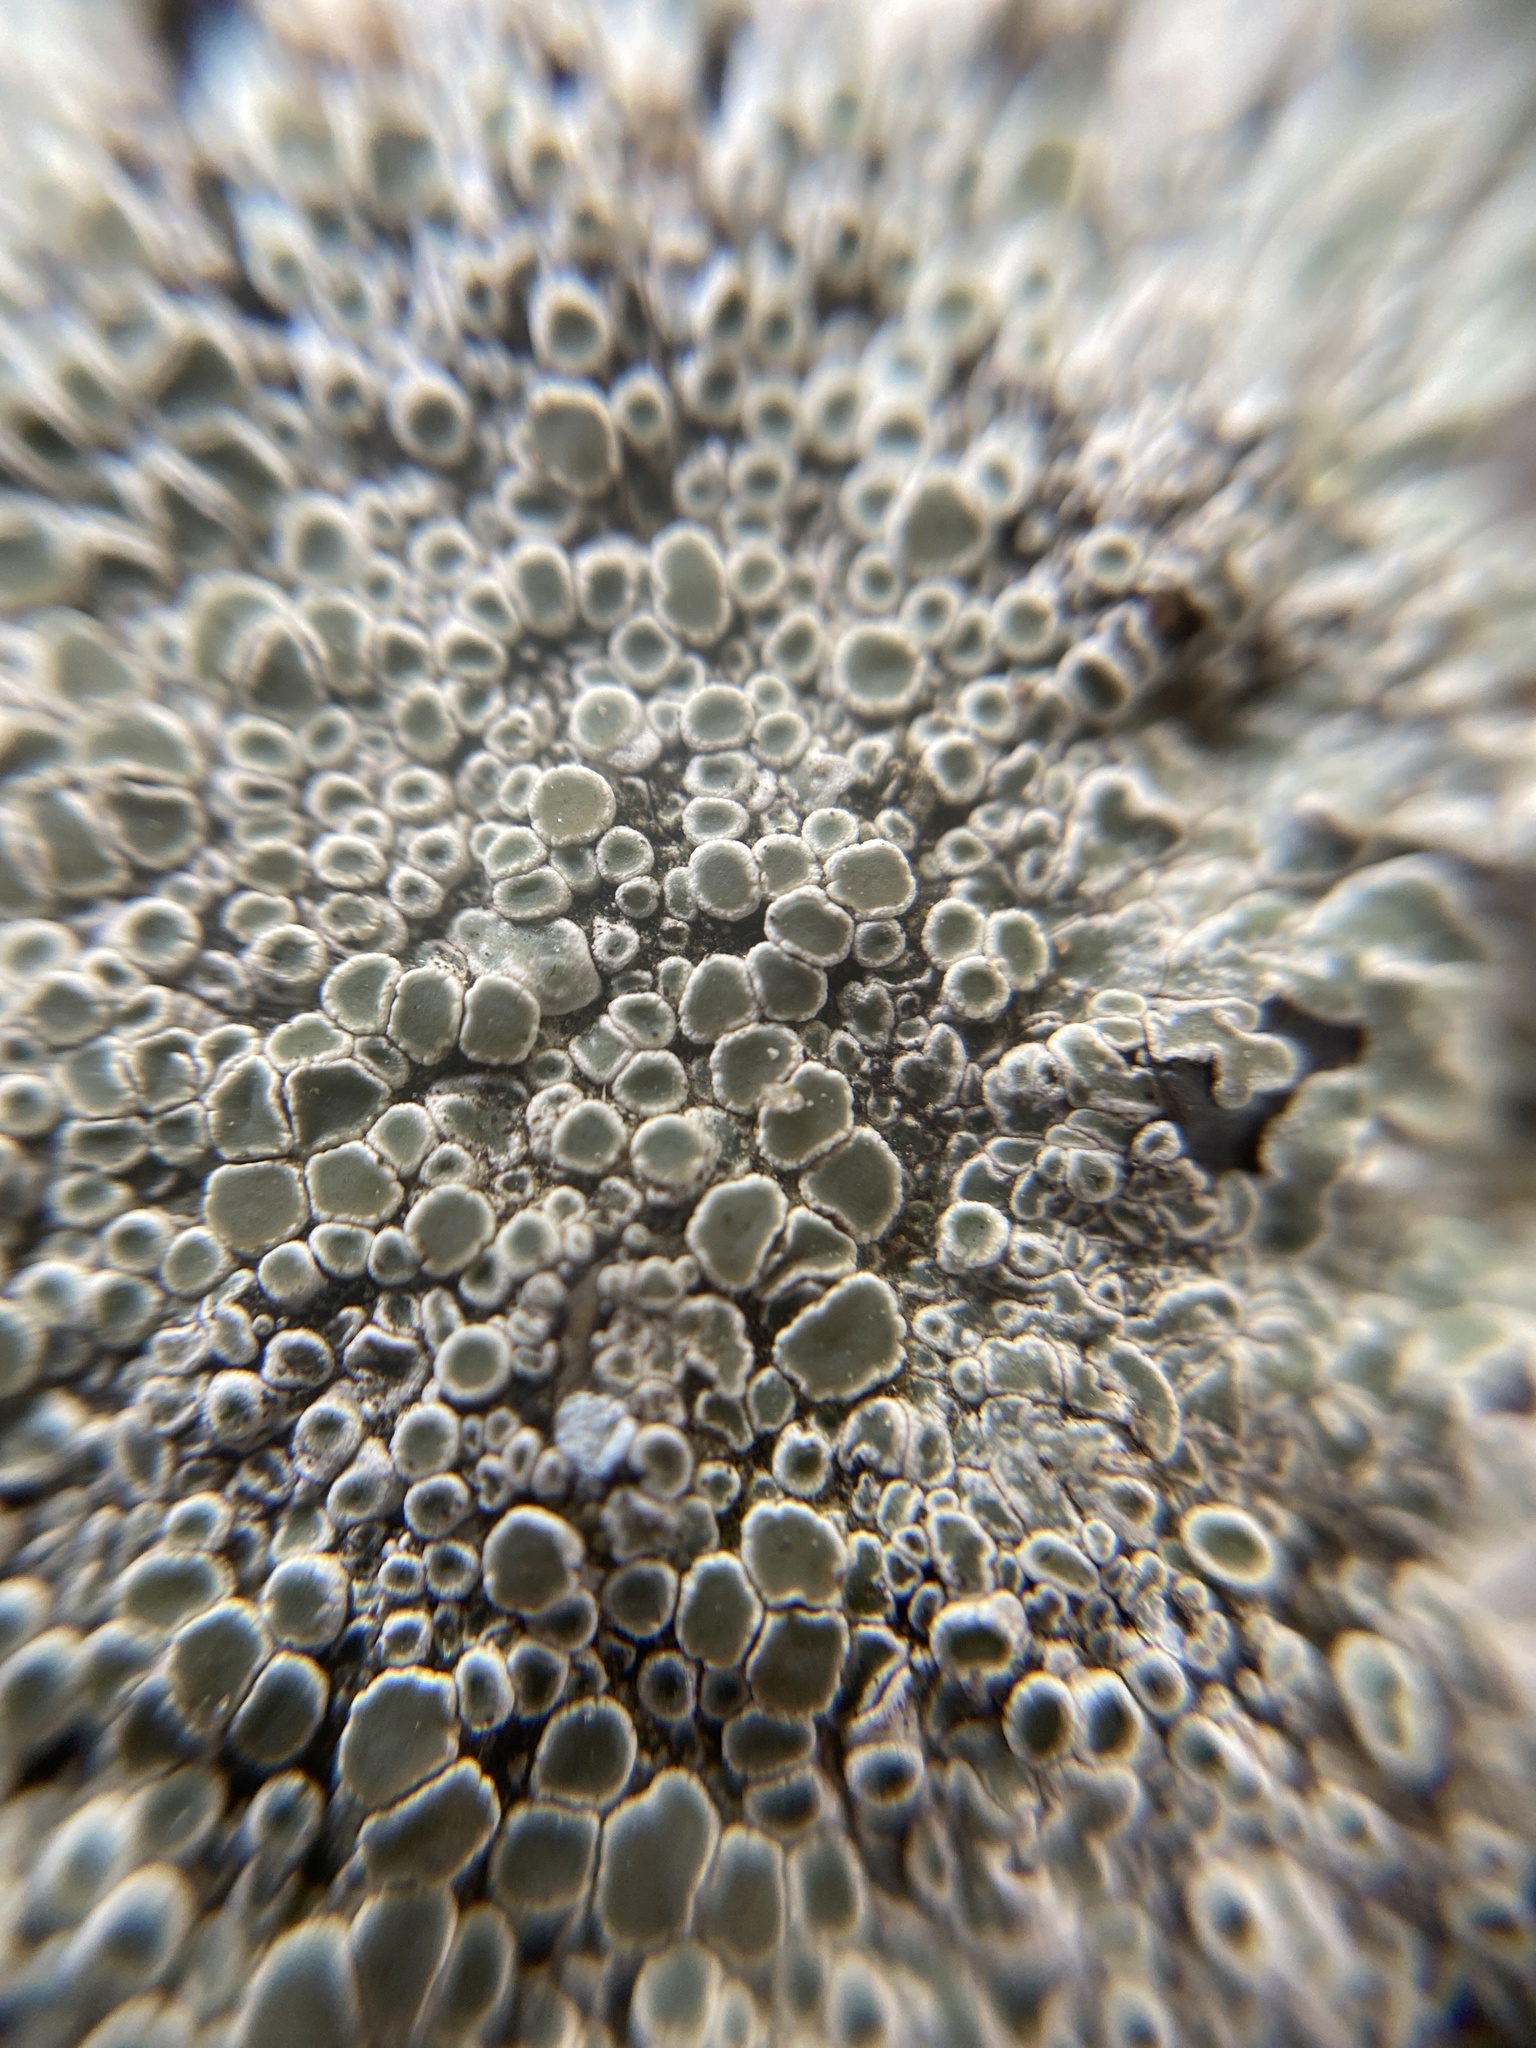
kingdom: Fungi
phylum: Ascomycota
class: Lecanoromycetes
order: Lecanorales
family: Lecanoraceae
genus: Protoparmeliopsis
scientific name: Protoparmeliopsis muralis
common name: Stonewall rim lichen
